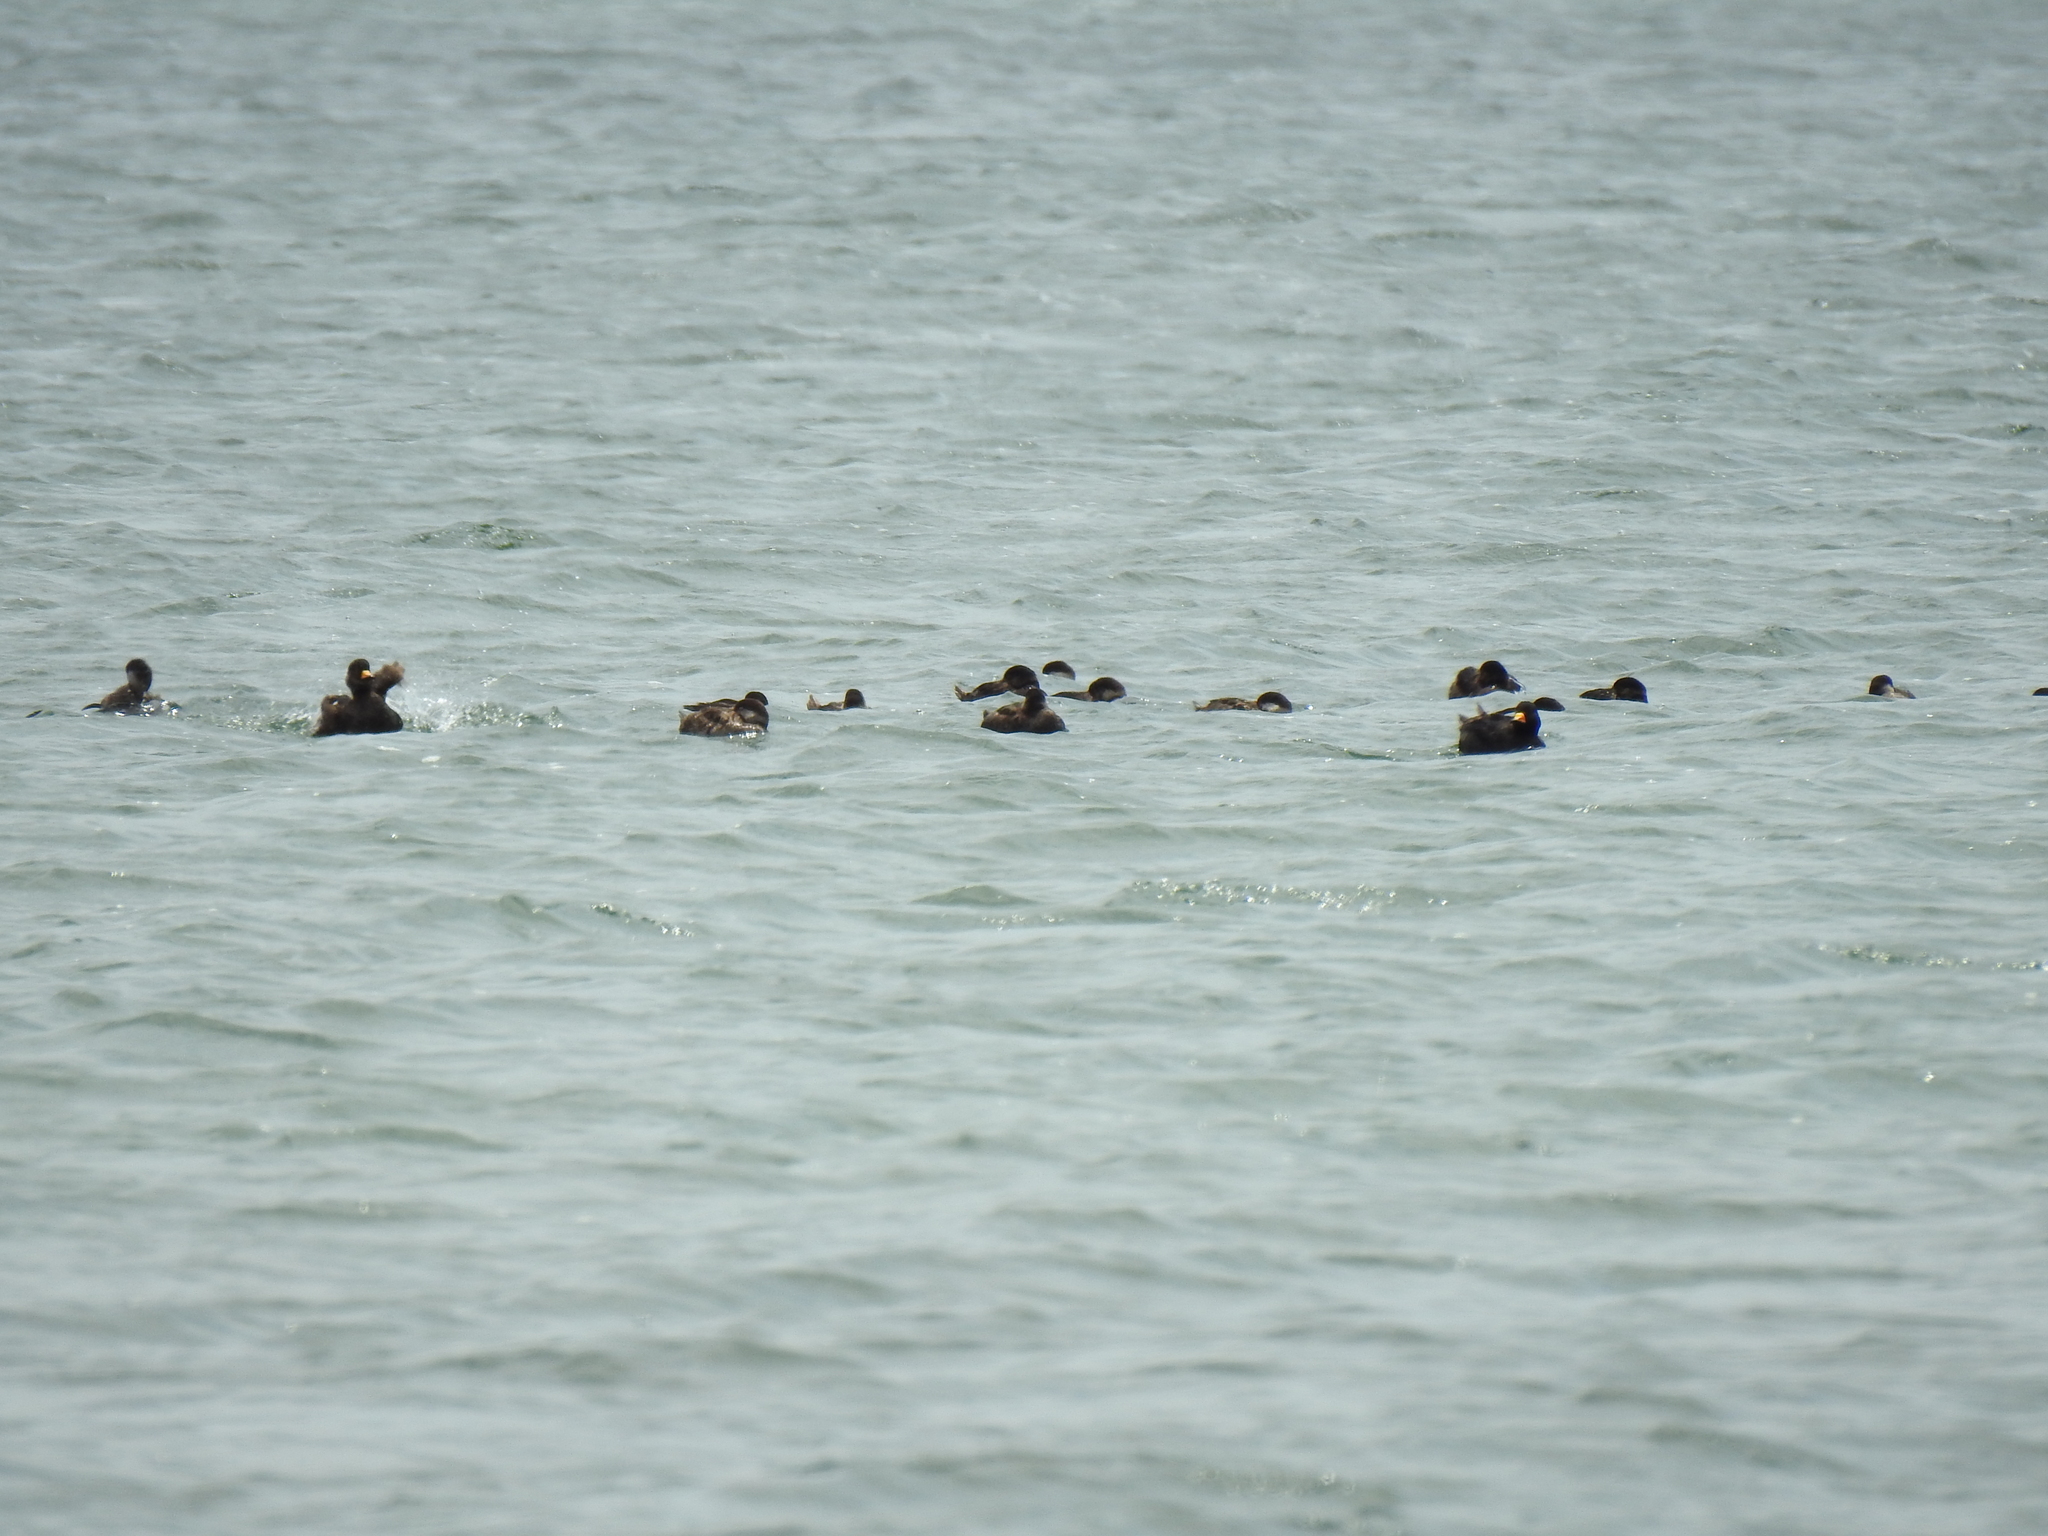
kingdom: Animalia
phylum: Chordata
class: Aves
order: Anseriformes
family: Anatidae
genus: Melanitta
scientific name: Melanitta americana
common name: Black scoter
